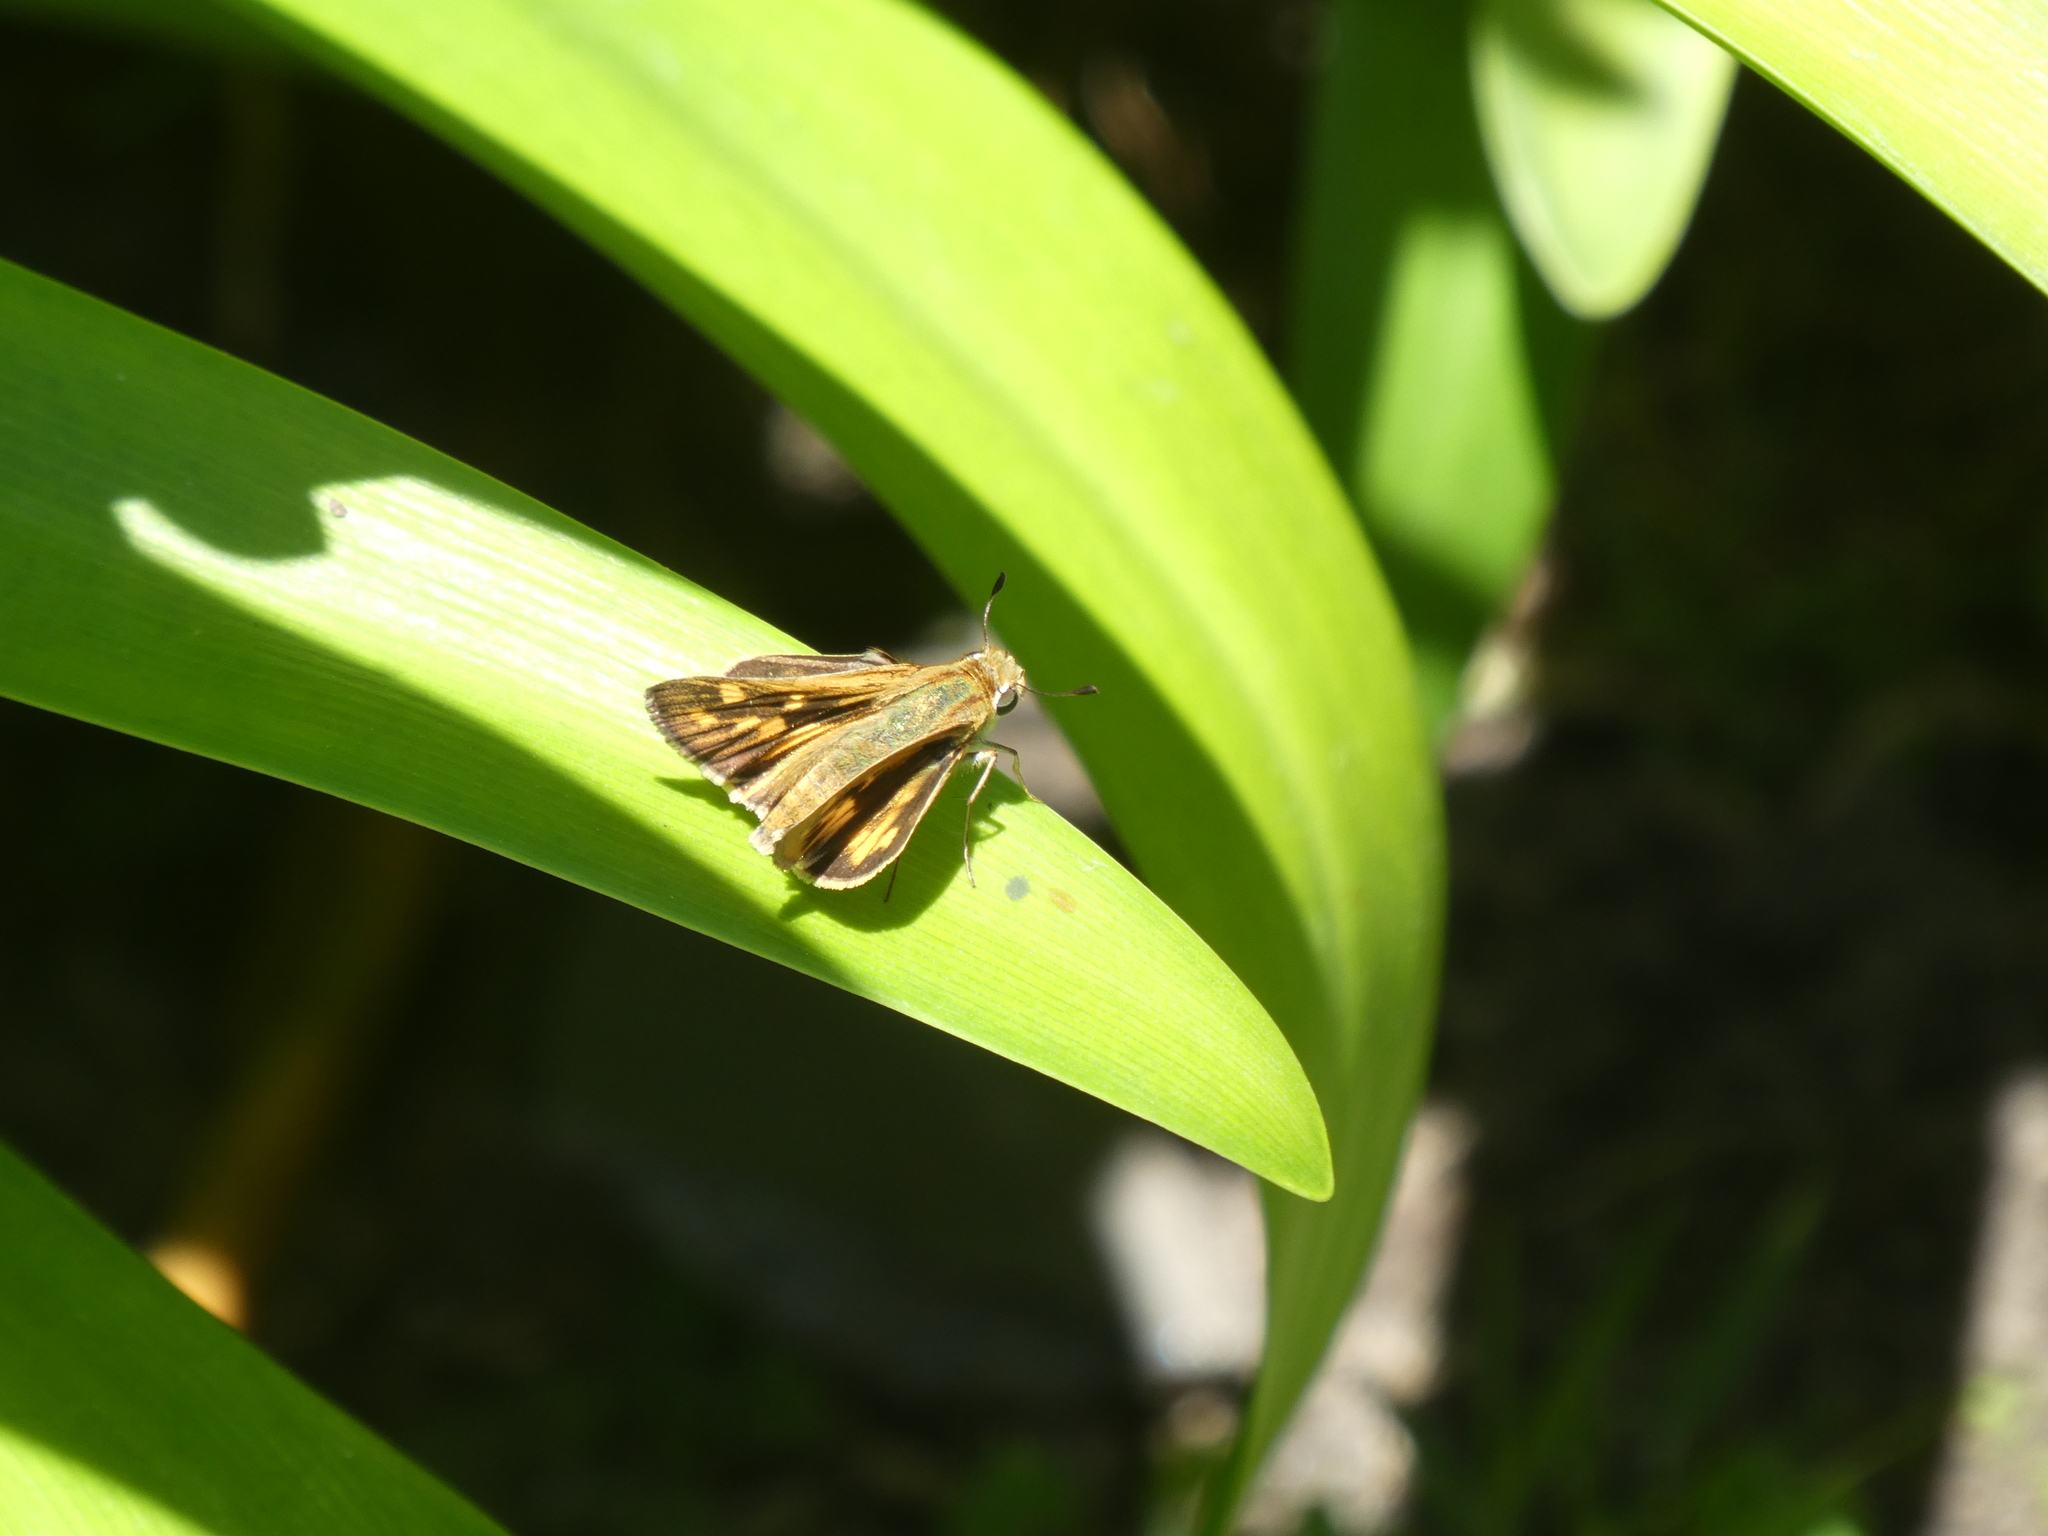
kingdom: Animalia
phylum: Arthropoda
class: Insecta
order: Lepidoptera
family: Hesperiidae
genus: Hylephila
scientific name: Hylephila phyleus
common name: Fiery skipper
